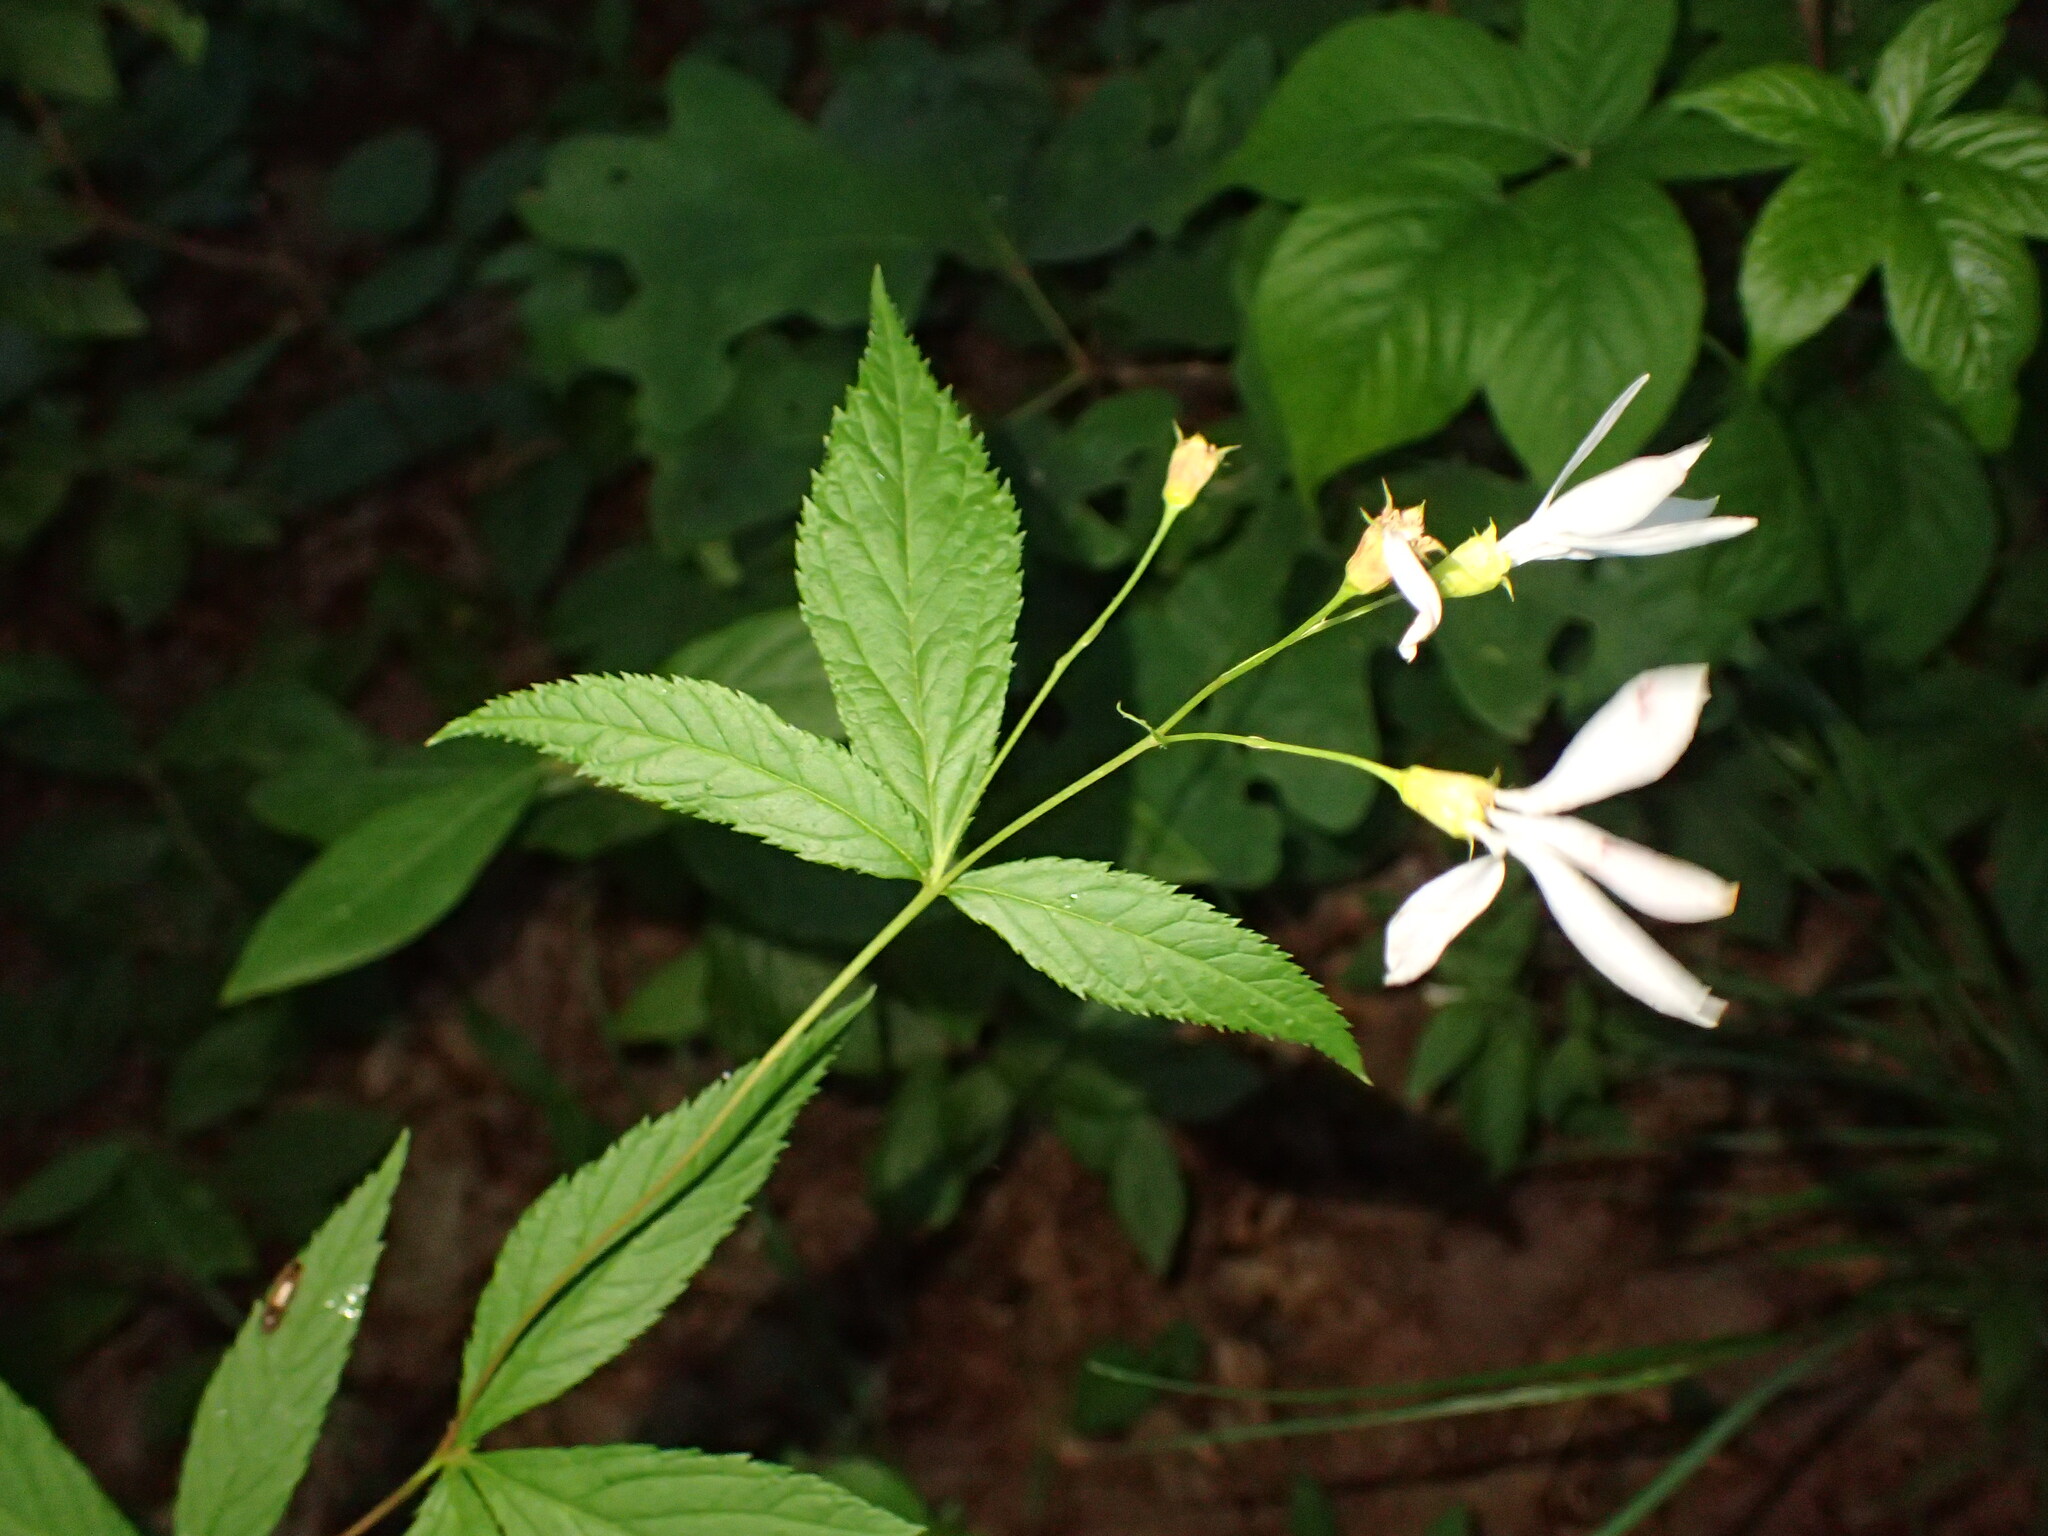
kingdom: Plantae
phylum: Tracheophyta
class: Magnoliopsida
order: Rosales
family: Rosaceae
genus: Gillenia
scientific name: Gillenia trifoliata
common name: Bowman's-root
